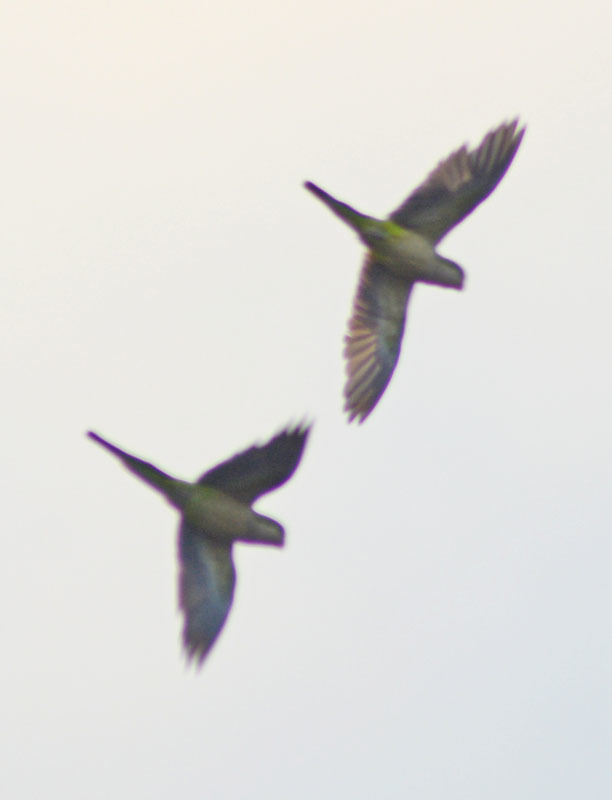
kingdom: Animalia
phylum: Chordata
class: Aves
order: Psittaciformes
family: Psittacidae
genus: Myiopsitta
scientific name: Myiopsitta monachus
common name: Monk parakeet
